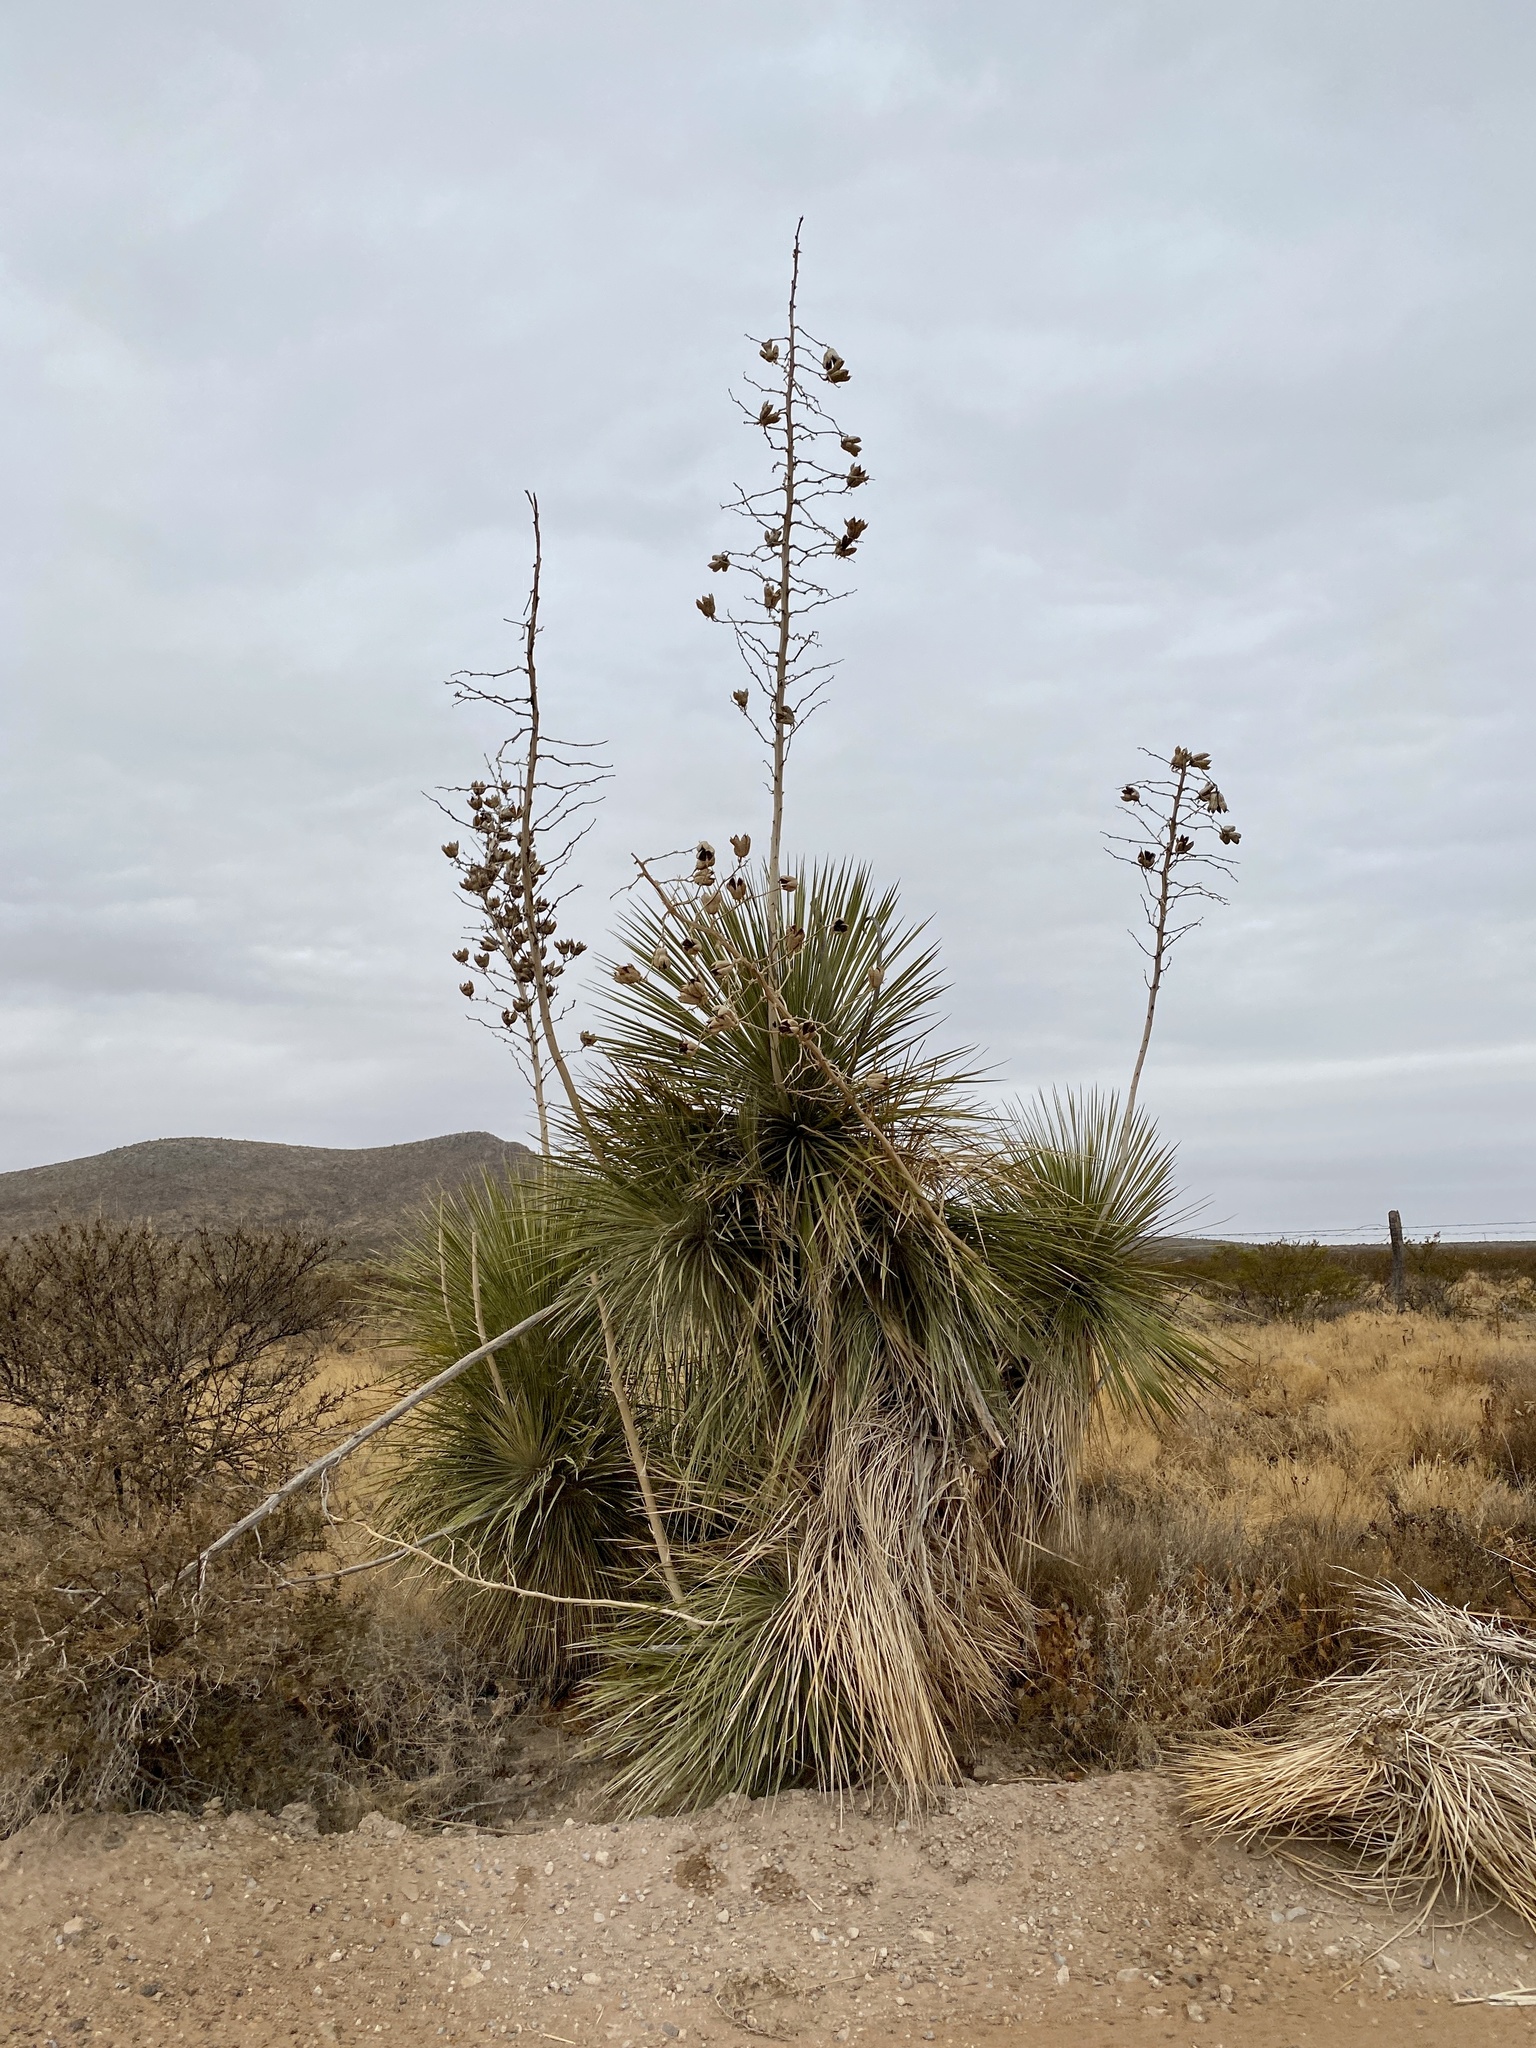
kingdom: Plantae
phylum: Tracheophyta
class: Liliopsida
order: Asparagales
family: Asparagaceae
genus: Yucca
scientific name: Yucca elata
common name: Palmella
